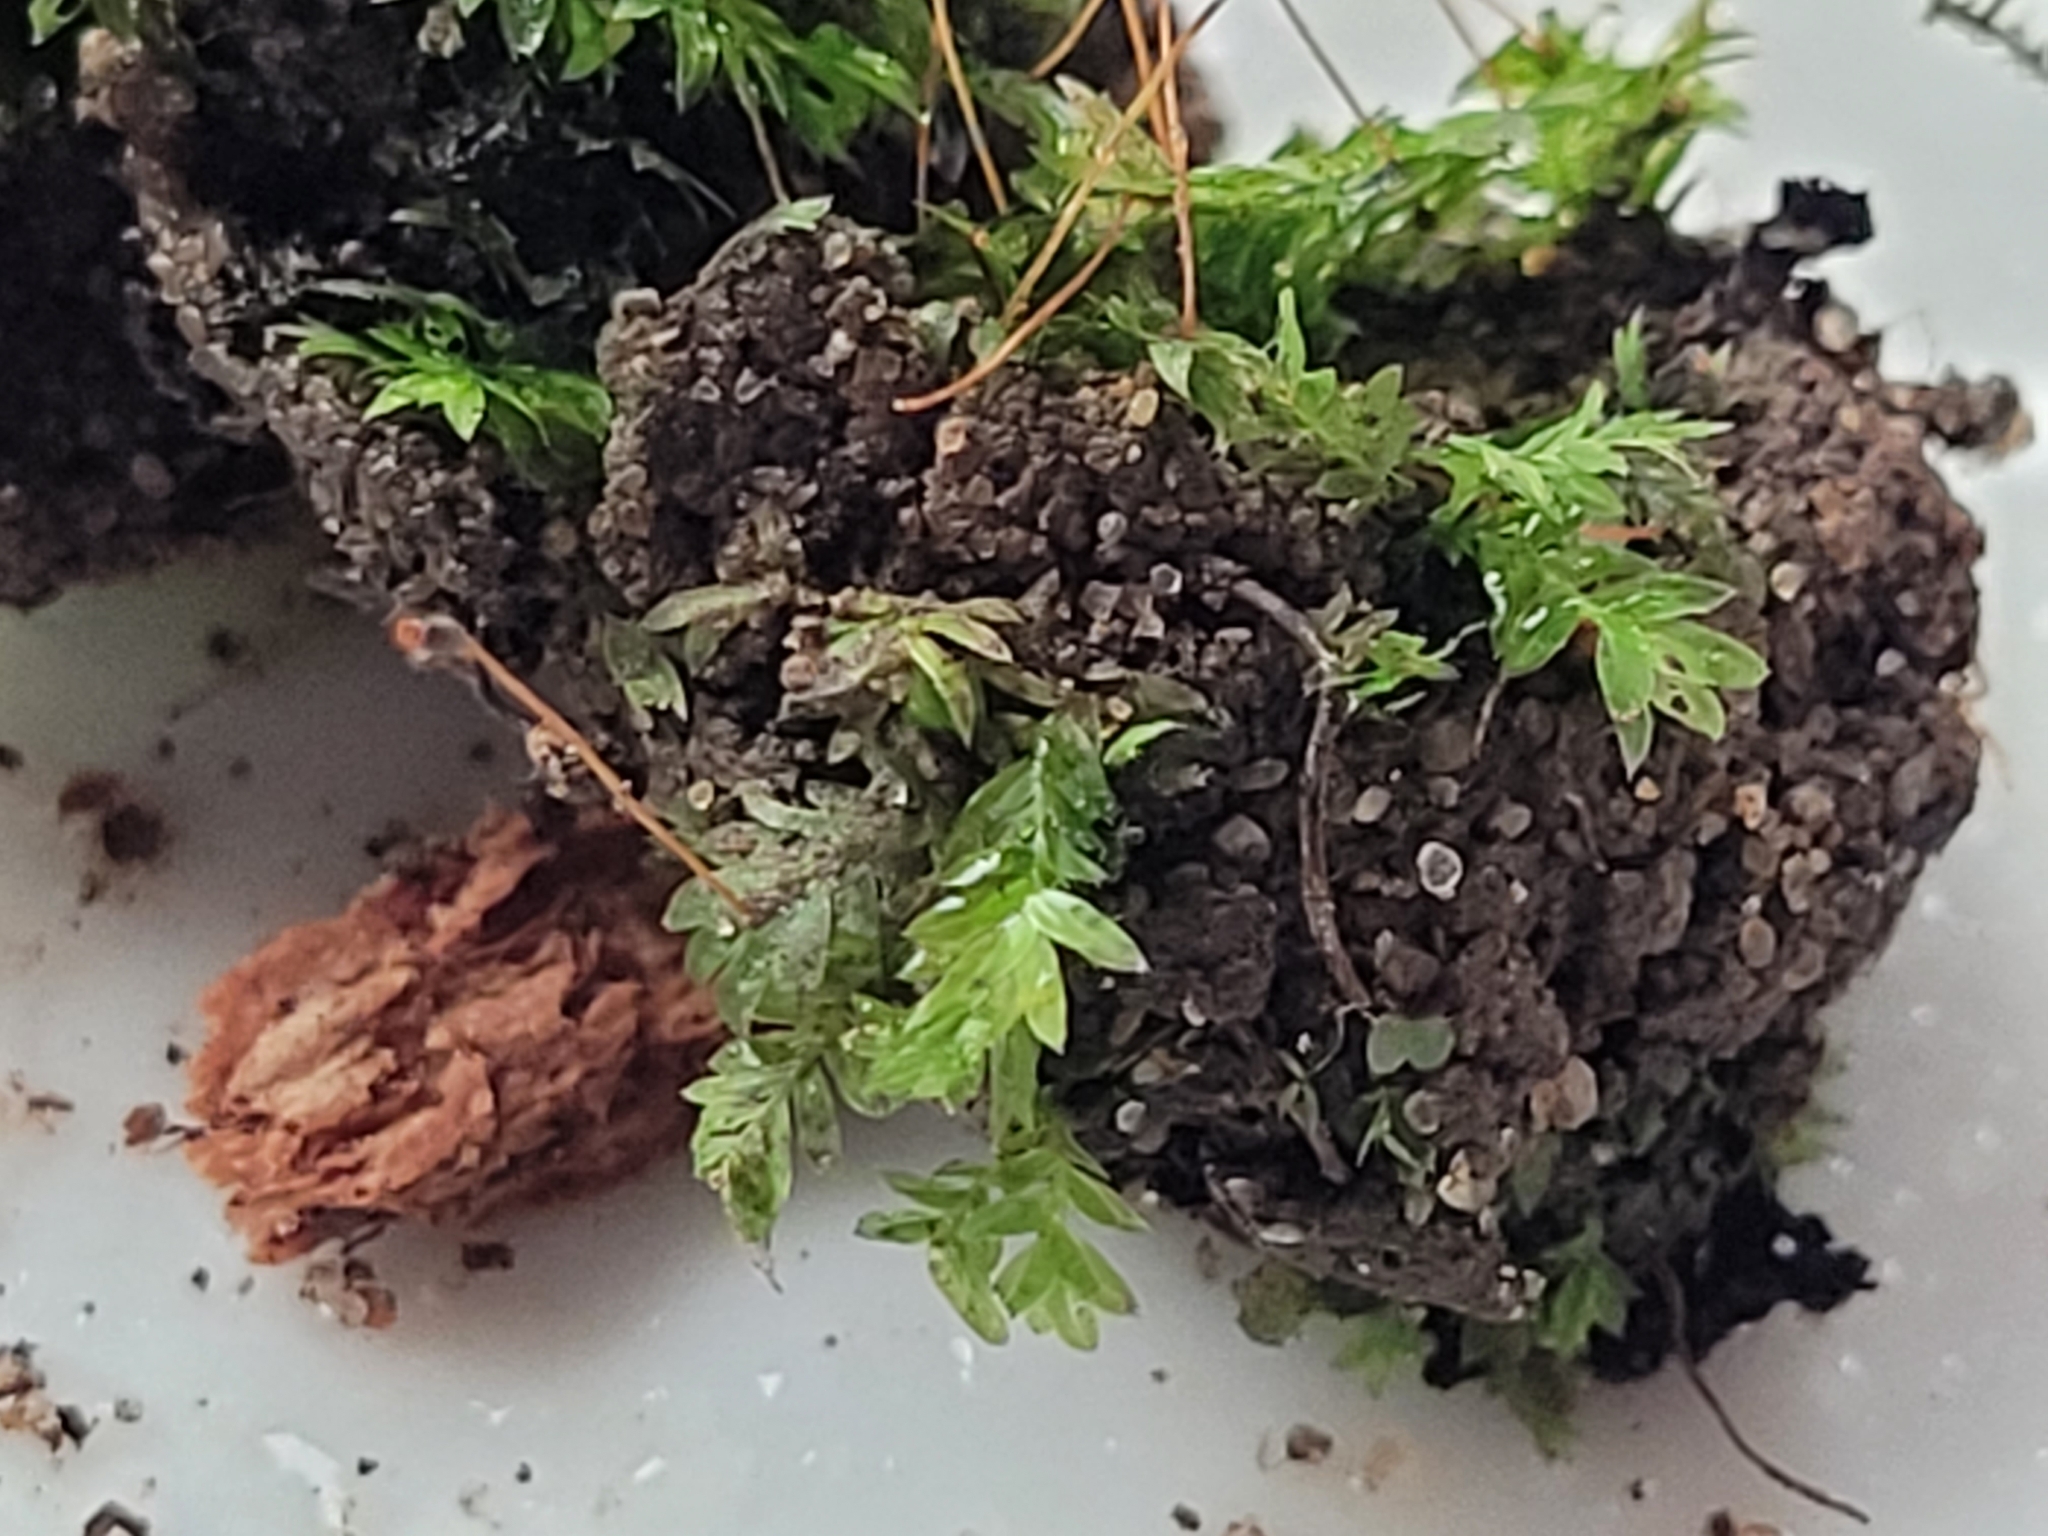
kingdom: Plantae
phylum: Bryophyta
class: Bryopsida
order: Dicranales
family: Fissidentaceae
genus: Fissidens
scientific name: Fissidens bryoides
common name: Lesser pocket moss
